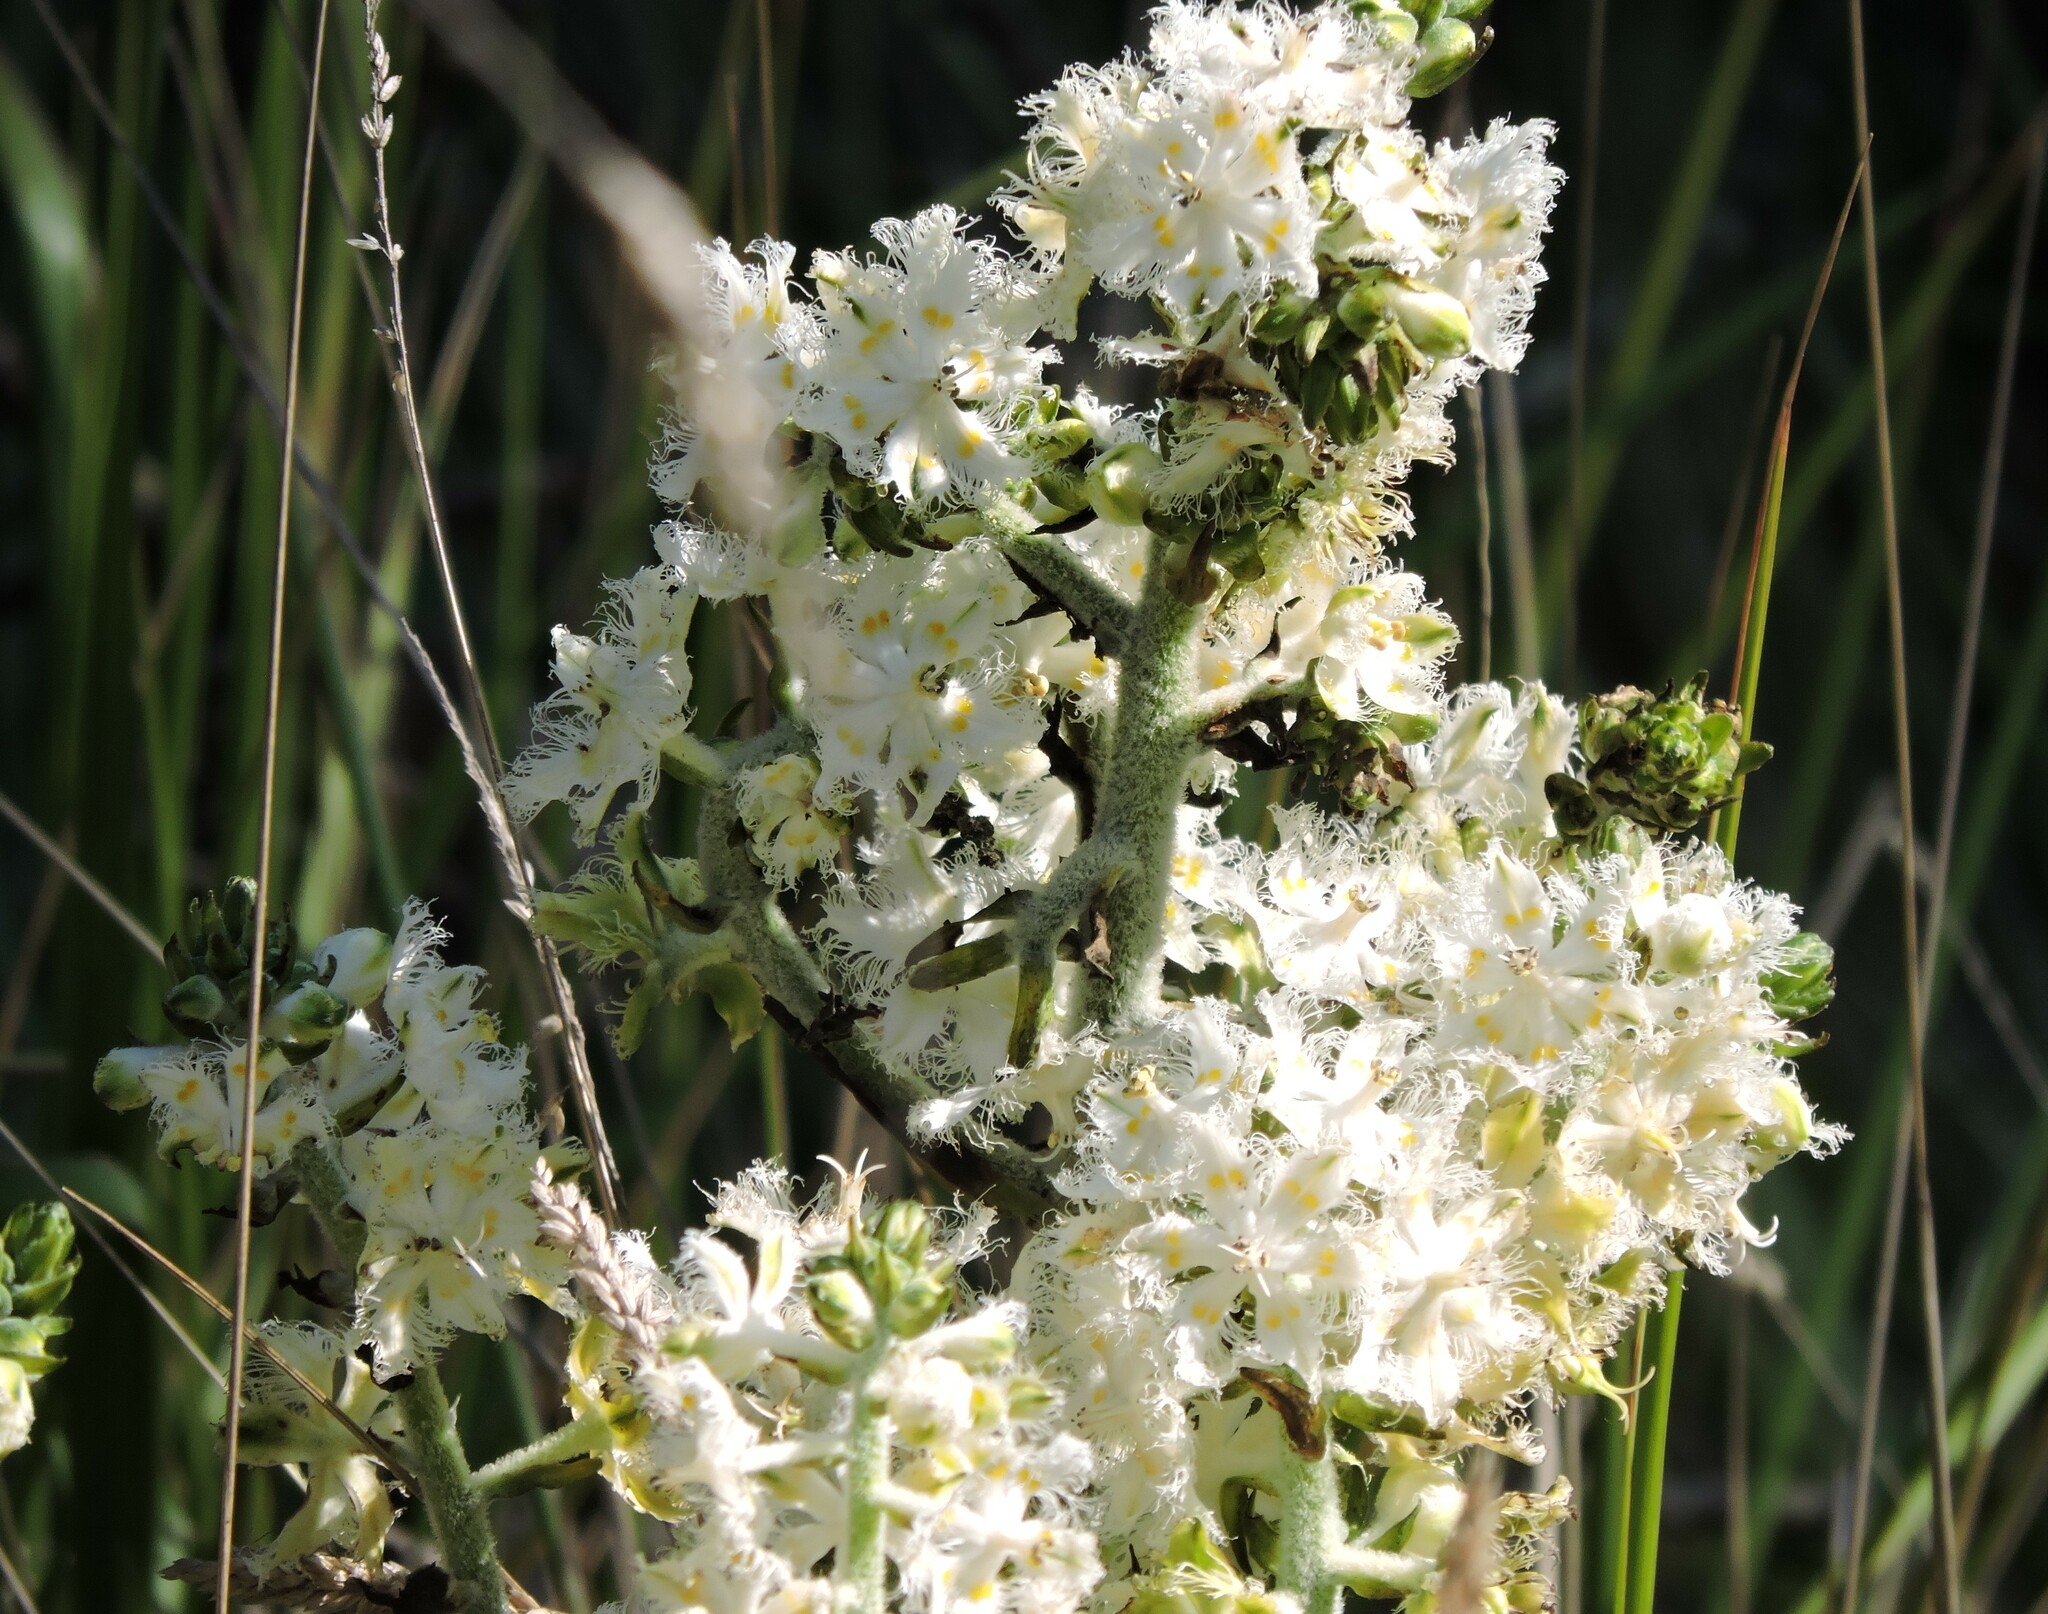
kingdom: Plantae
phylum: Tracheophyta
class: Liliopsida
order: Liliales
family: Melanthiaceae
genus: Veratrum
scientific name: Veratrum fimbriatum
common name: Fringe false hellobore
